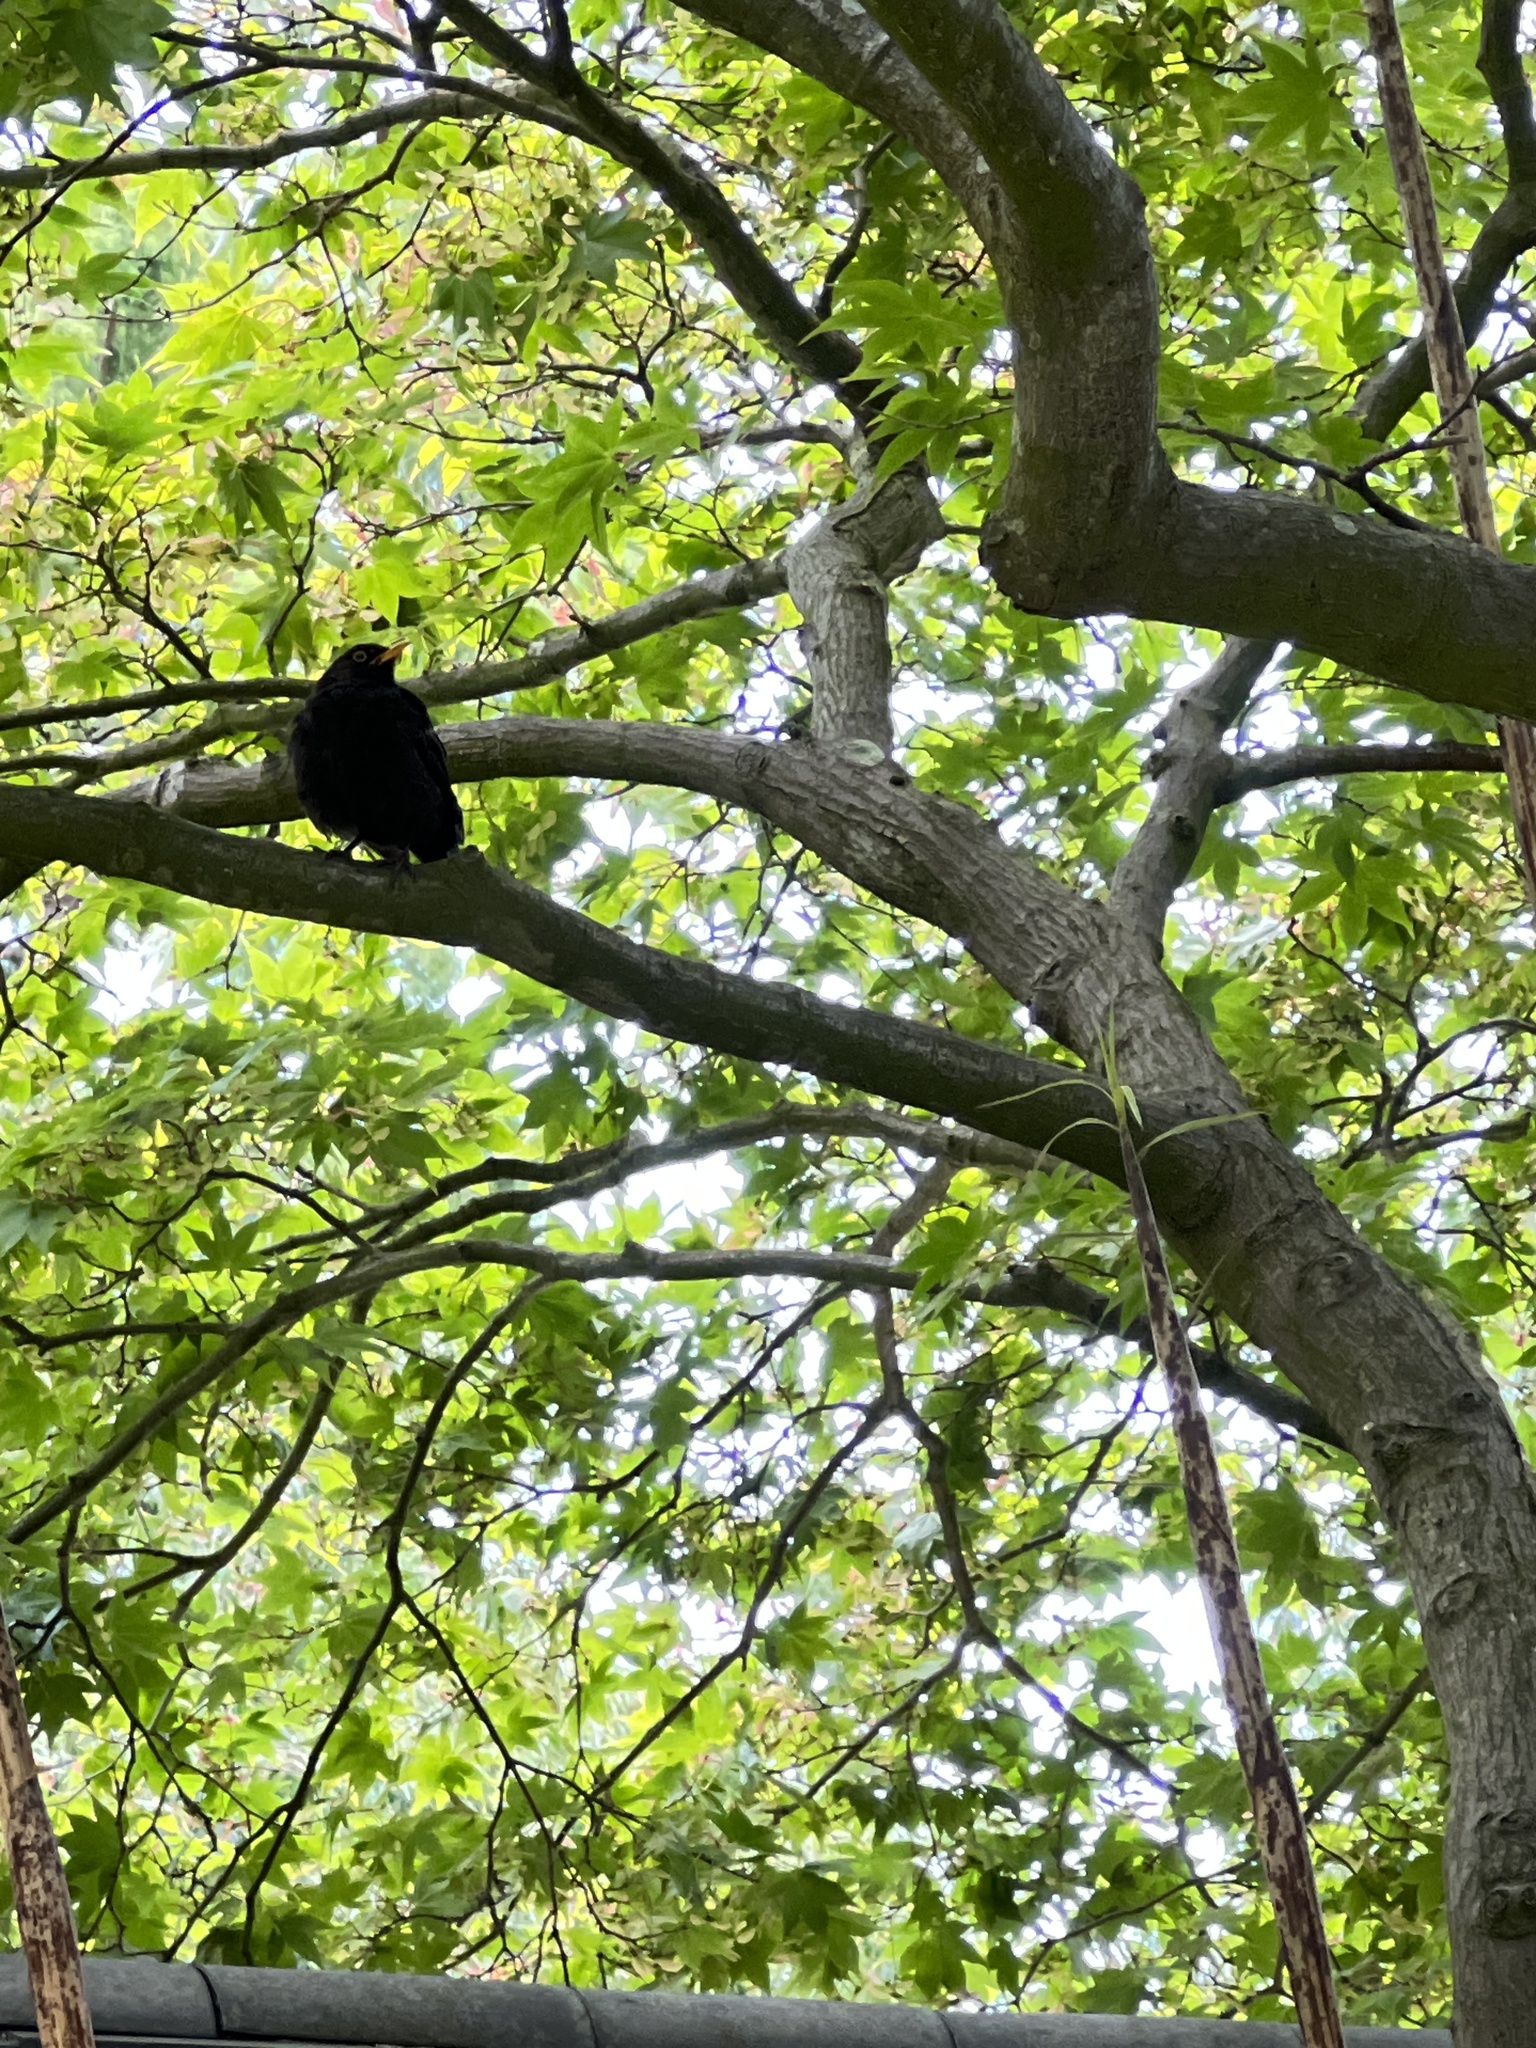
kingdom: Animalia
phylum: Chordata
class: Aves
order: Passeriformes
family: Turdidae
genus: Turdus
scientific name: Turdus merula
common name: Common blackbird
